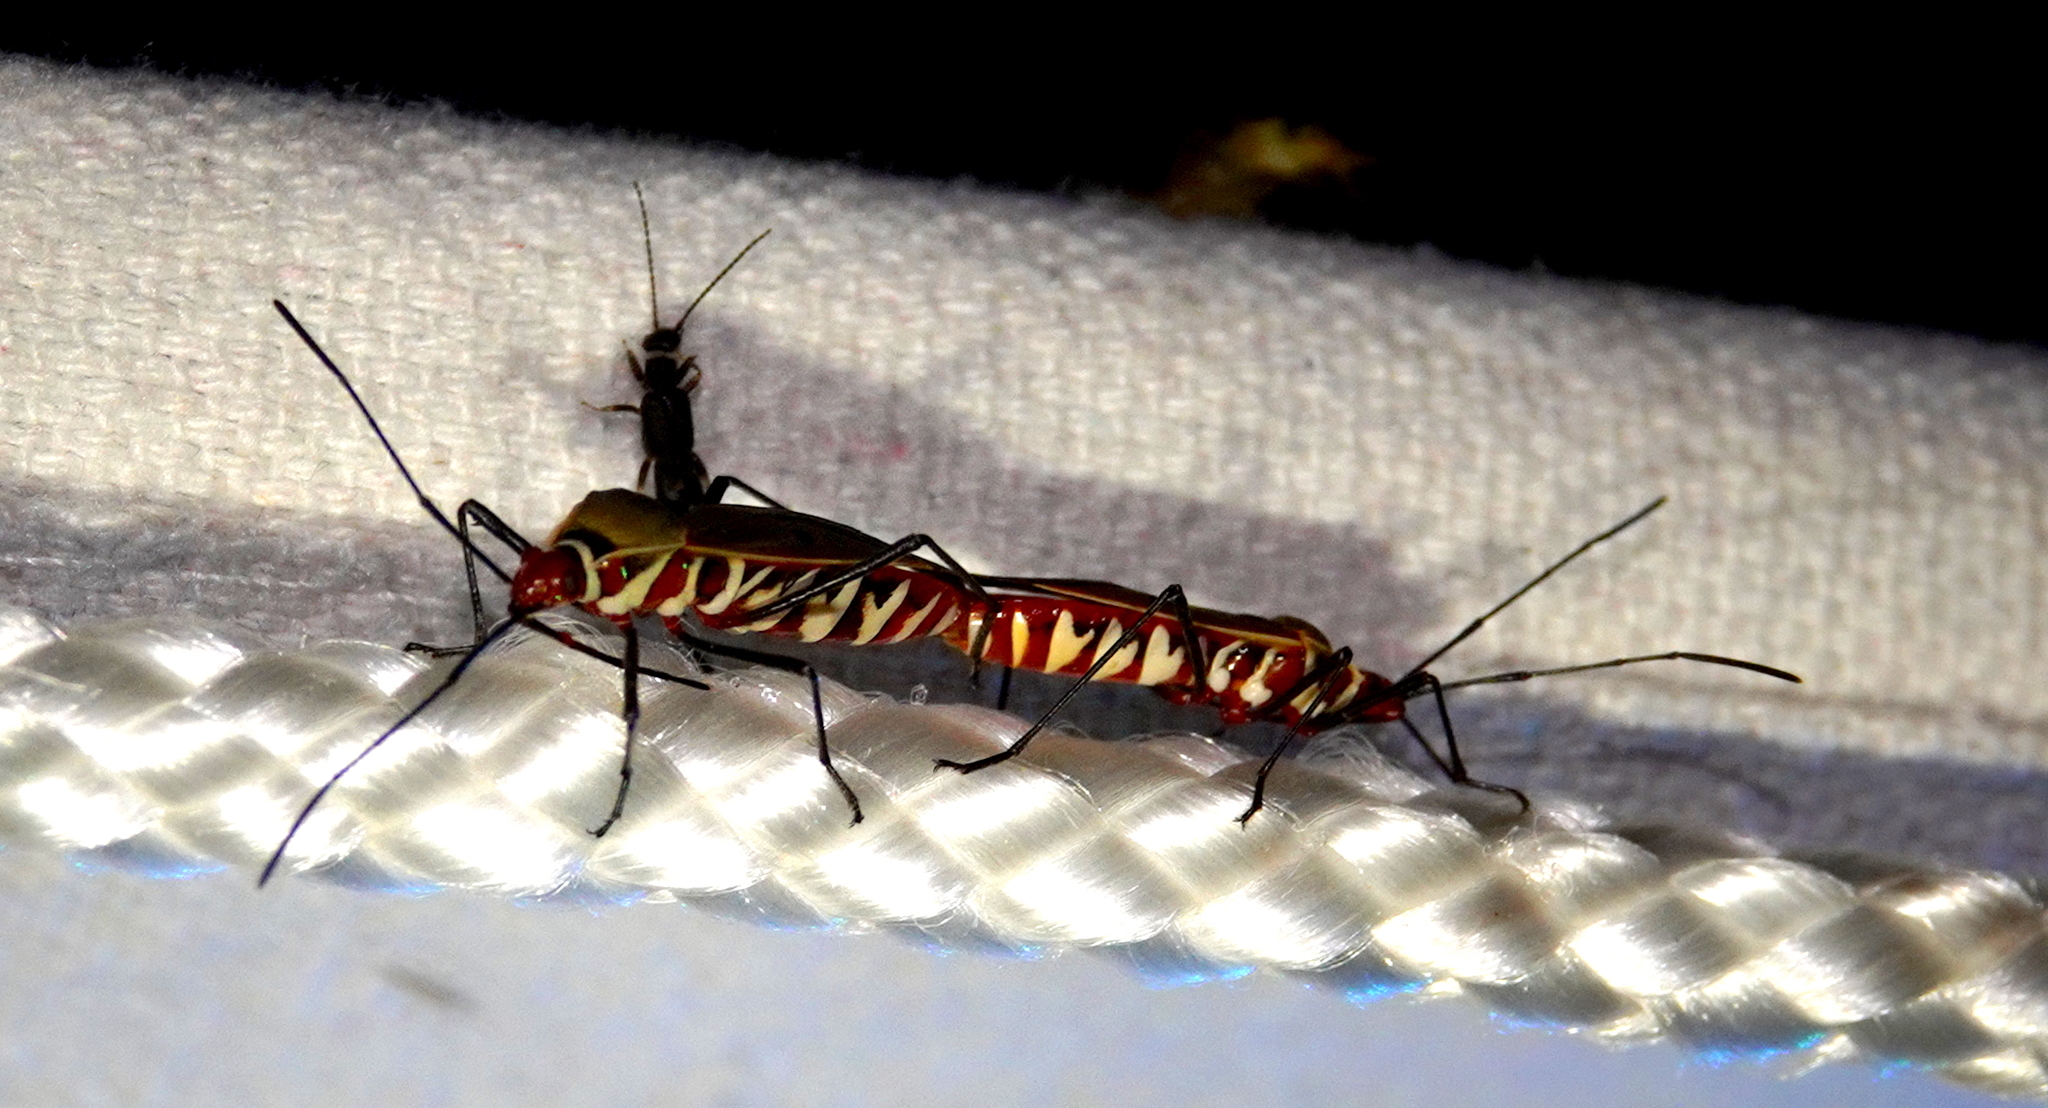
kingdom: Animalia
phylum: Arthropoda
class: Insecta
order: Hemiptera
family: Pyrrhocoridae
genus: Dysdercus
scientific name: Dysdercus fuscomaculatus
